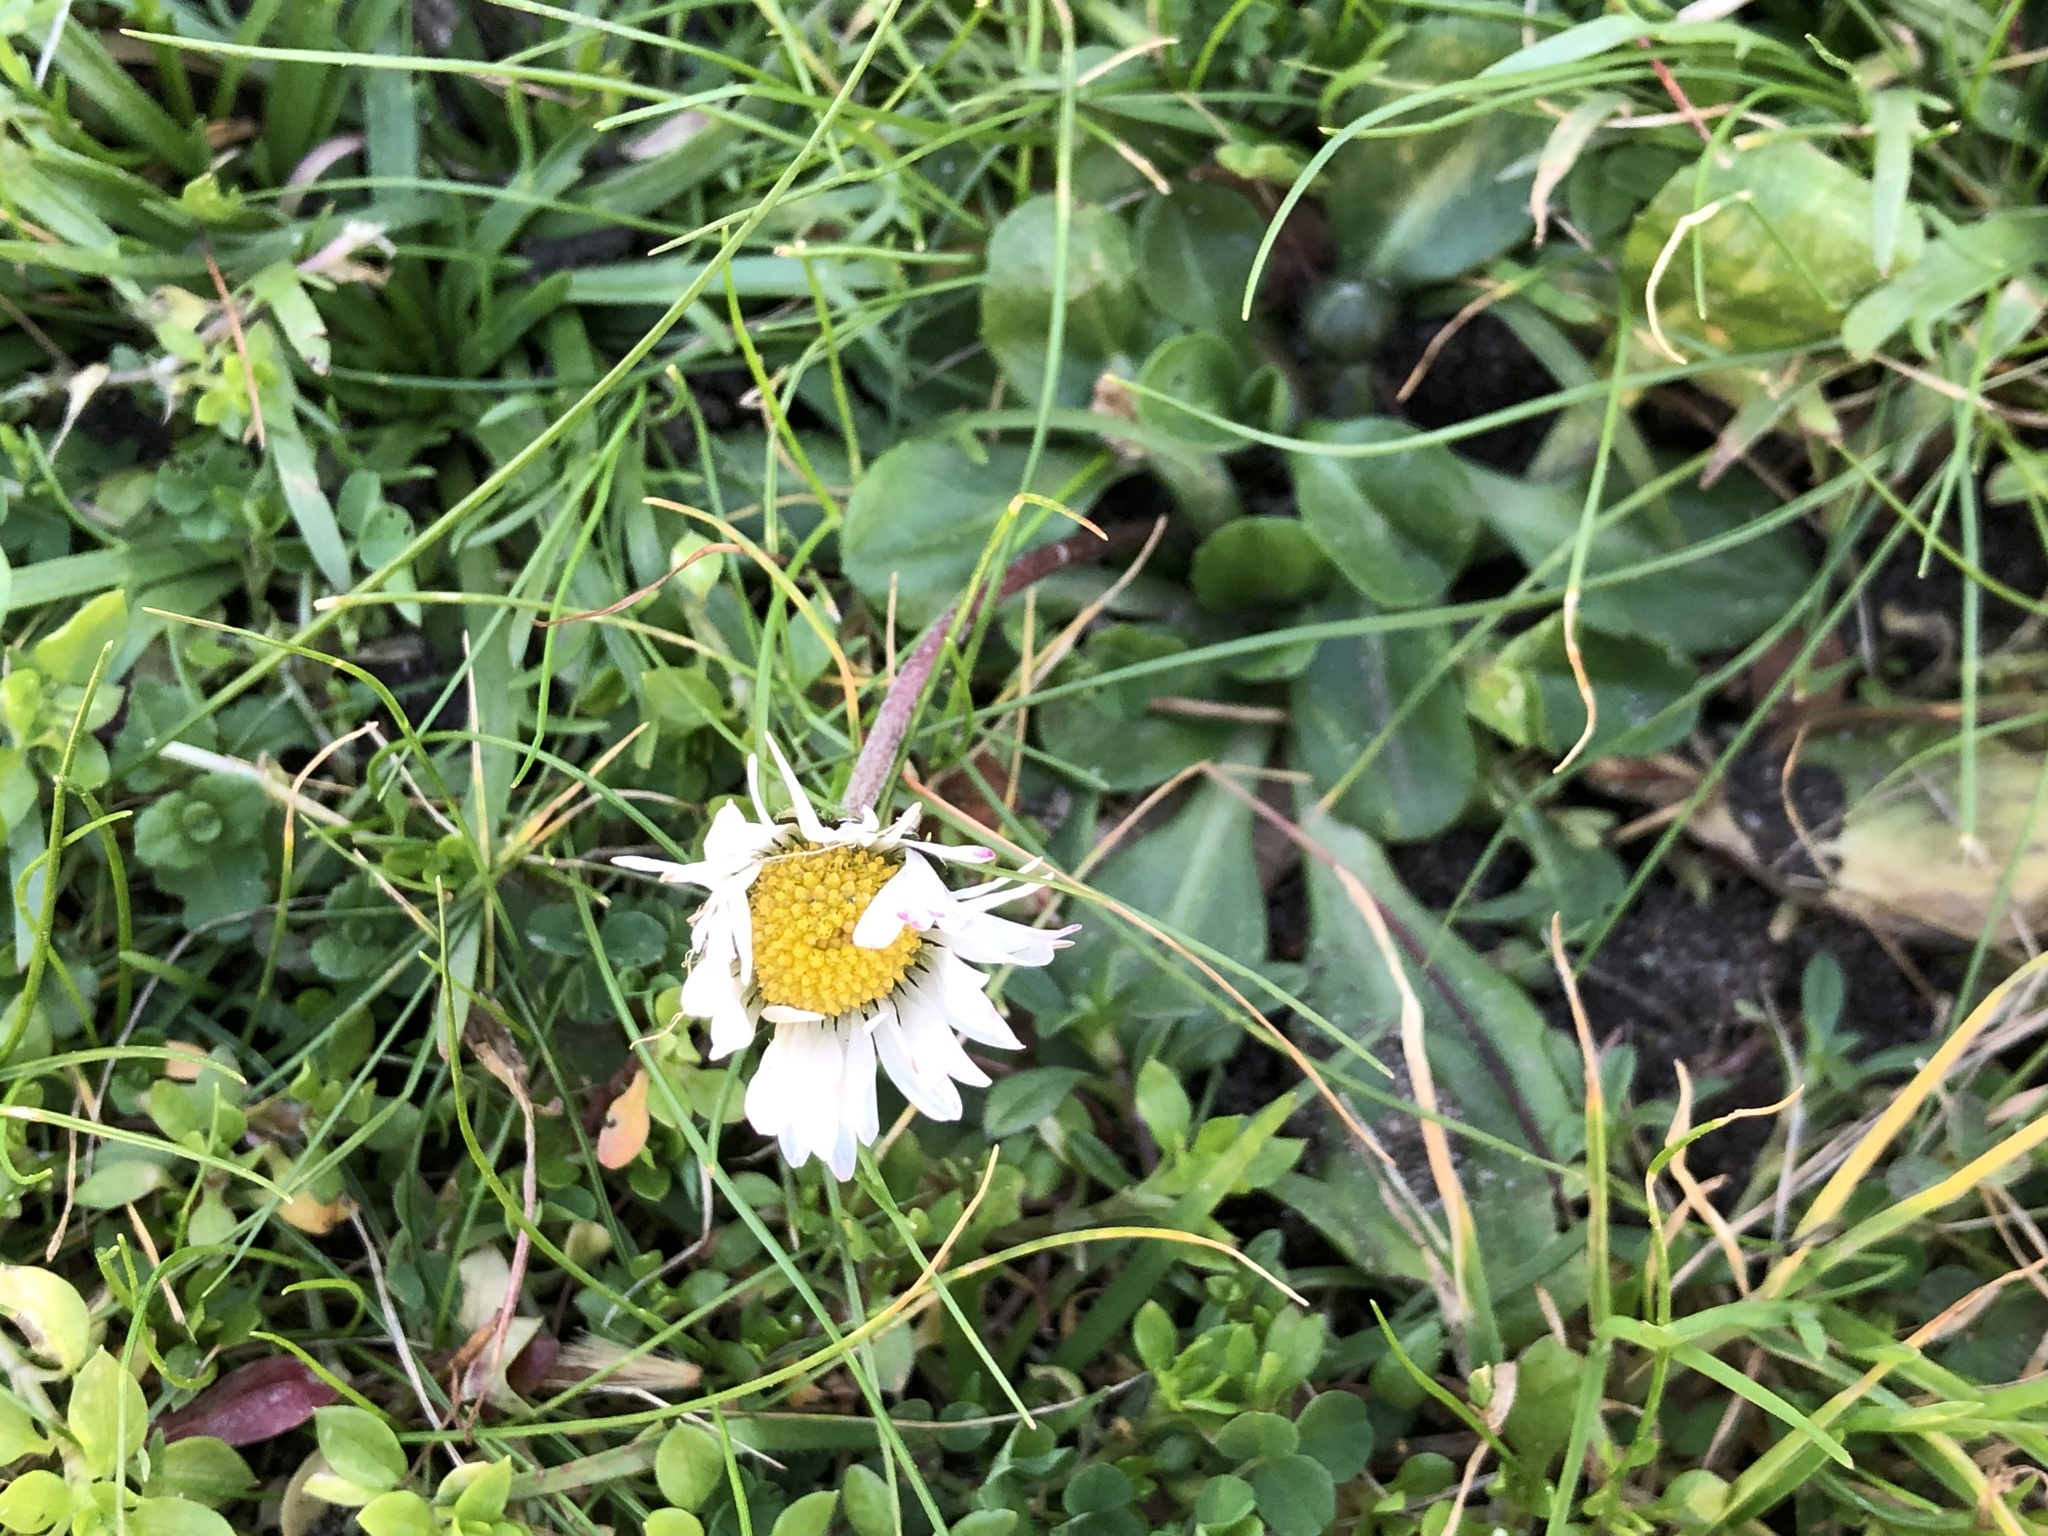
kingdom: Plantae
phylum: Tracheophyta
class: Magnoliopsida
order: Asterales
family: Asteraceae
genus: Bellis
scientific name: Bellis perennis
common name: Lawndaisy
